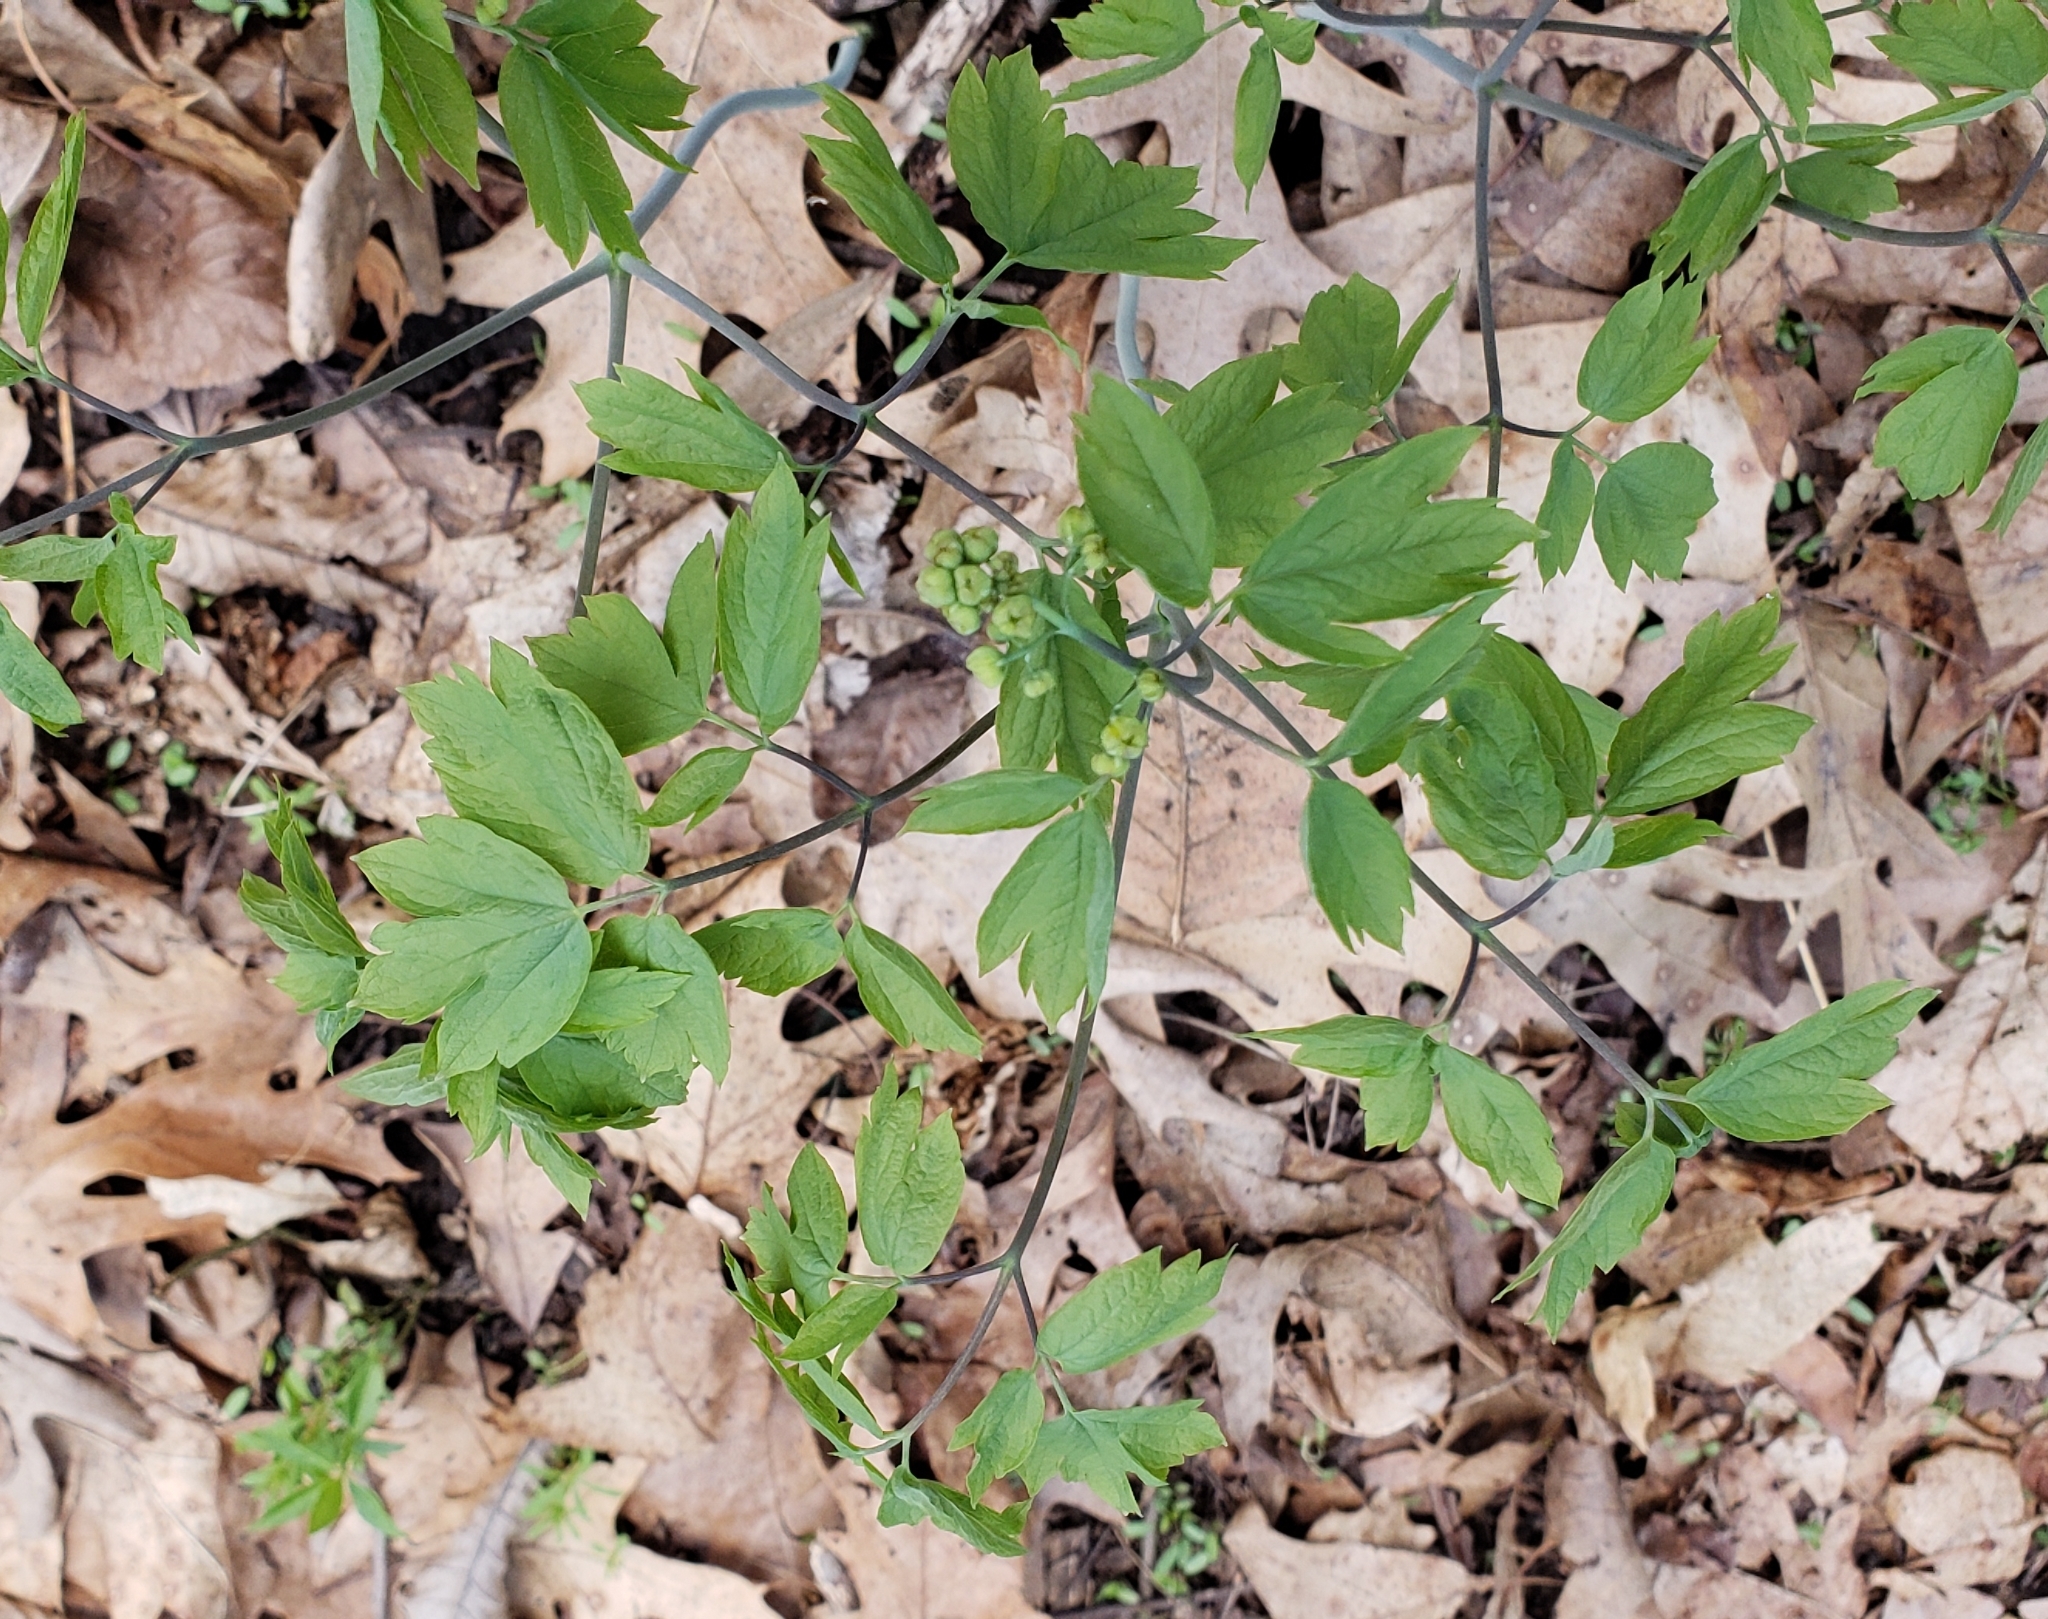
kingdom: Plantae
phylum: Tracheophyta
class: Magnoliopsida
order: Ranunculales
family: Berberidaceae
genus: Caulophyllum
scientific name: Caulophyllum thalictroides
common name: Blue cohosh
